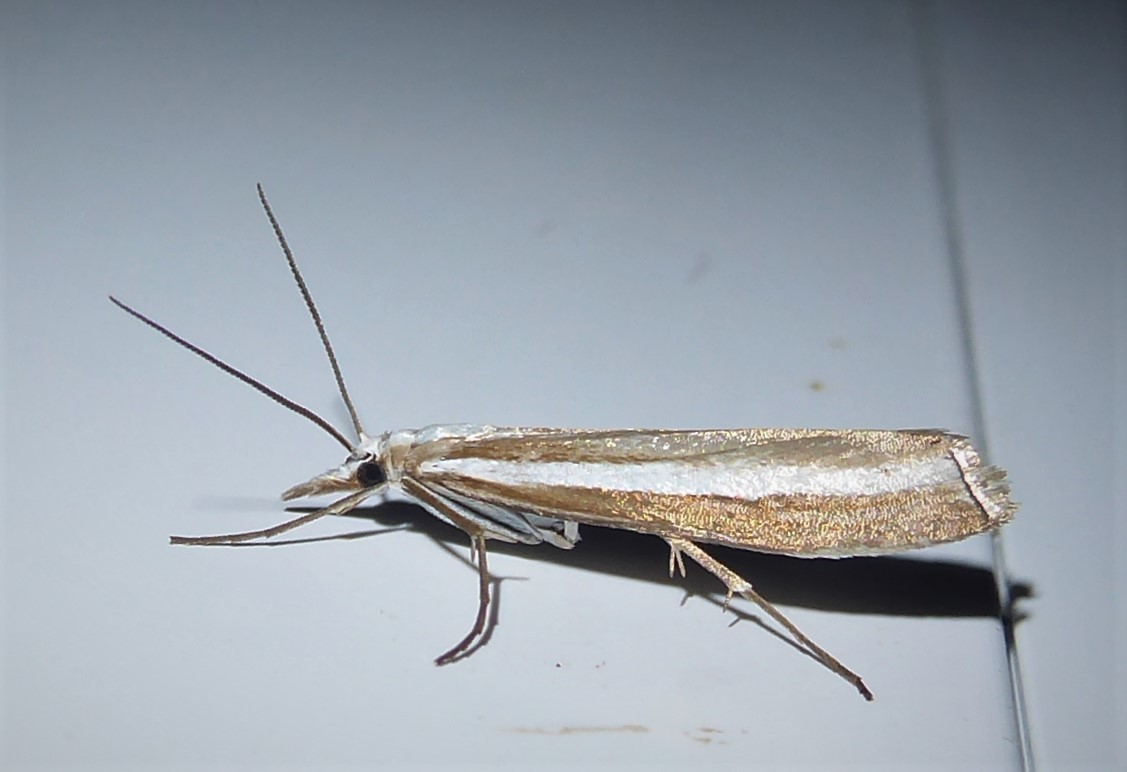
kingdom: Animalia
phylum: Arthropoda
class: Insecta
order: Lepidoptera
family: Crambidae
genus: Orocrambus
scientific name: Orocrambus vittellus
